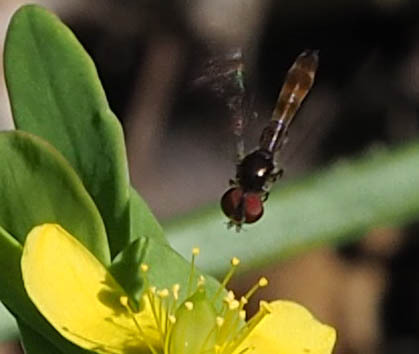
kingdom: Animalia
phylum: Arthropoda
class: Insecta
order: Diptera
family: Syrphidae
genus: Ocyptamus
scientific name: Ocyptamus fuscipennis
